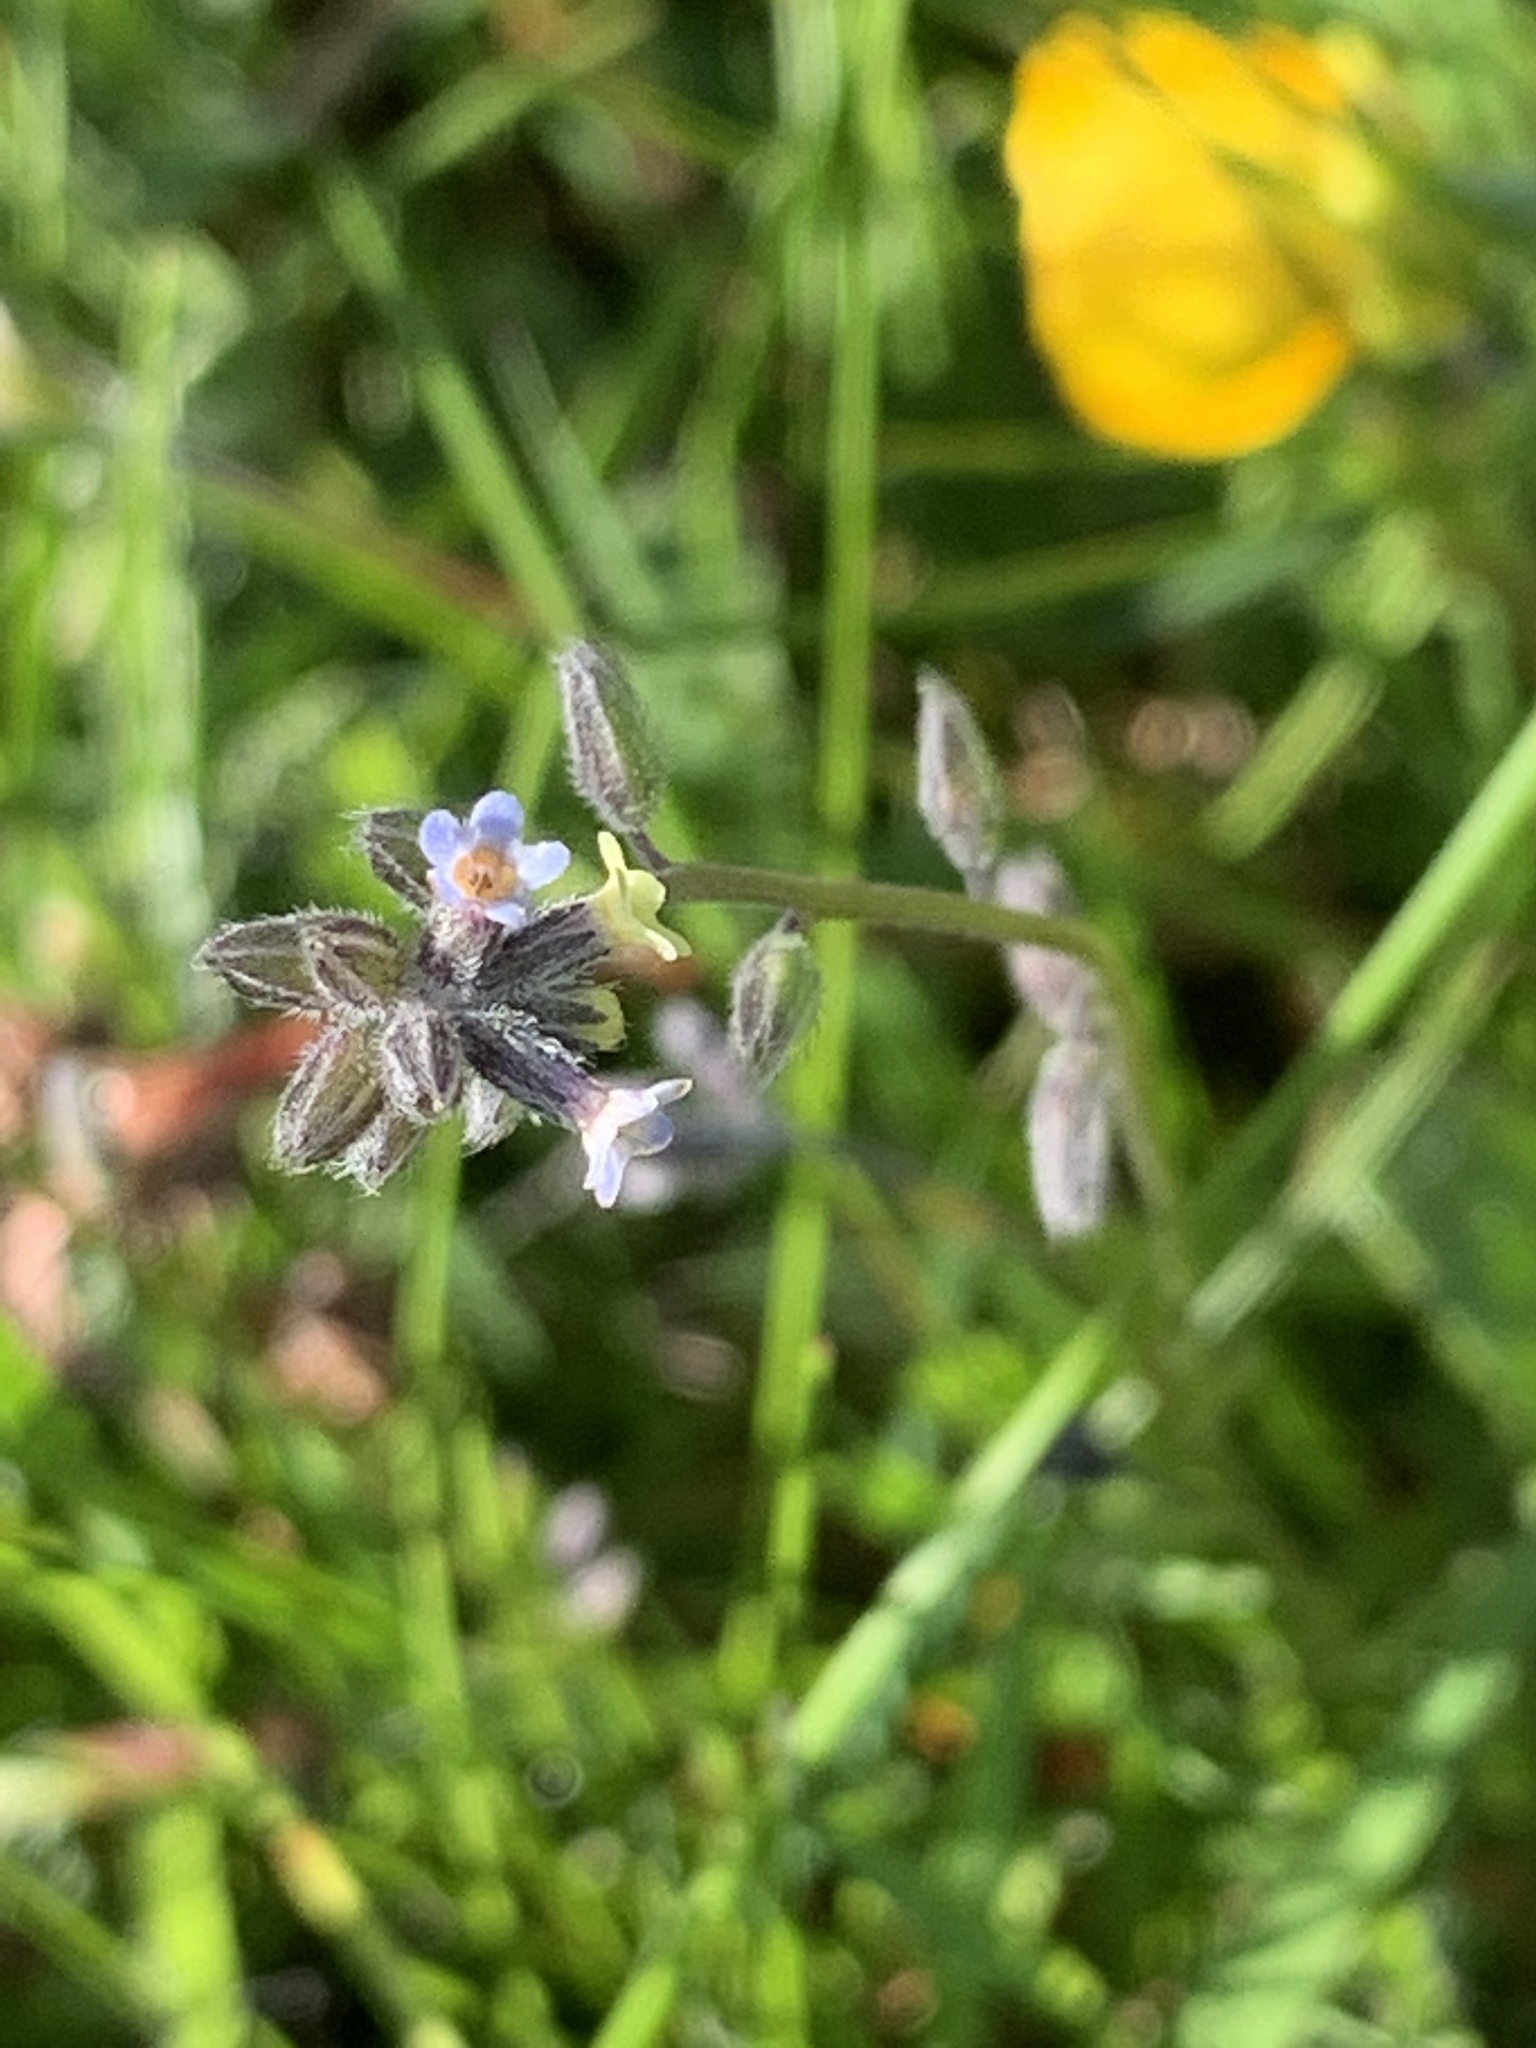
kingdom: Plantae
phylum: Tracheophyta
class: Magnoliopsida
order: Boraginales
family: Boraginaceae
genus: Myosotis
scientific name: Myosotis discolor
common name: Changing forget-me-not
